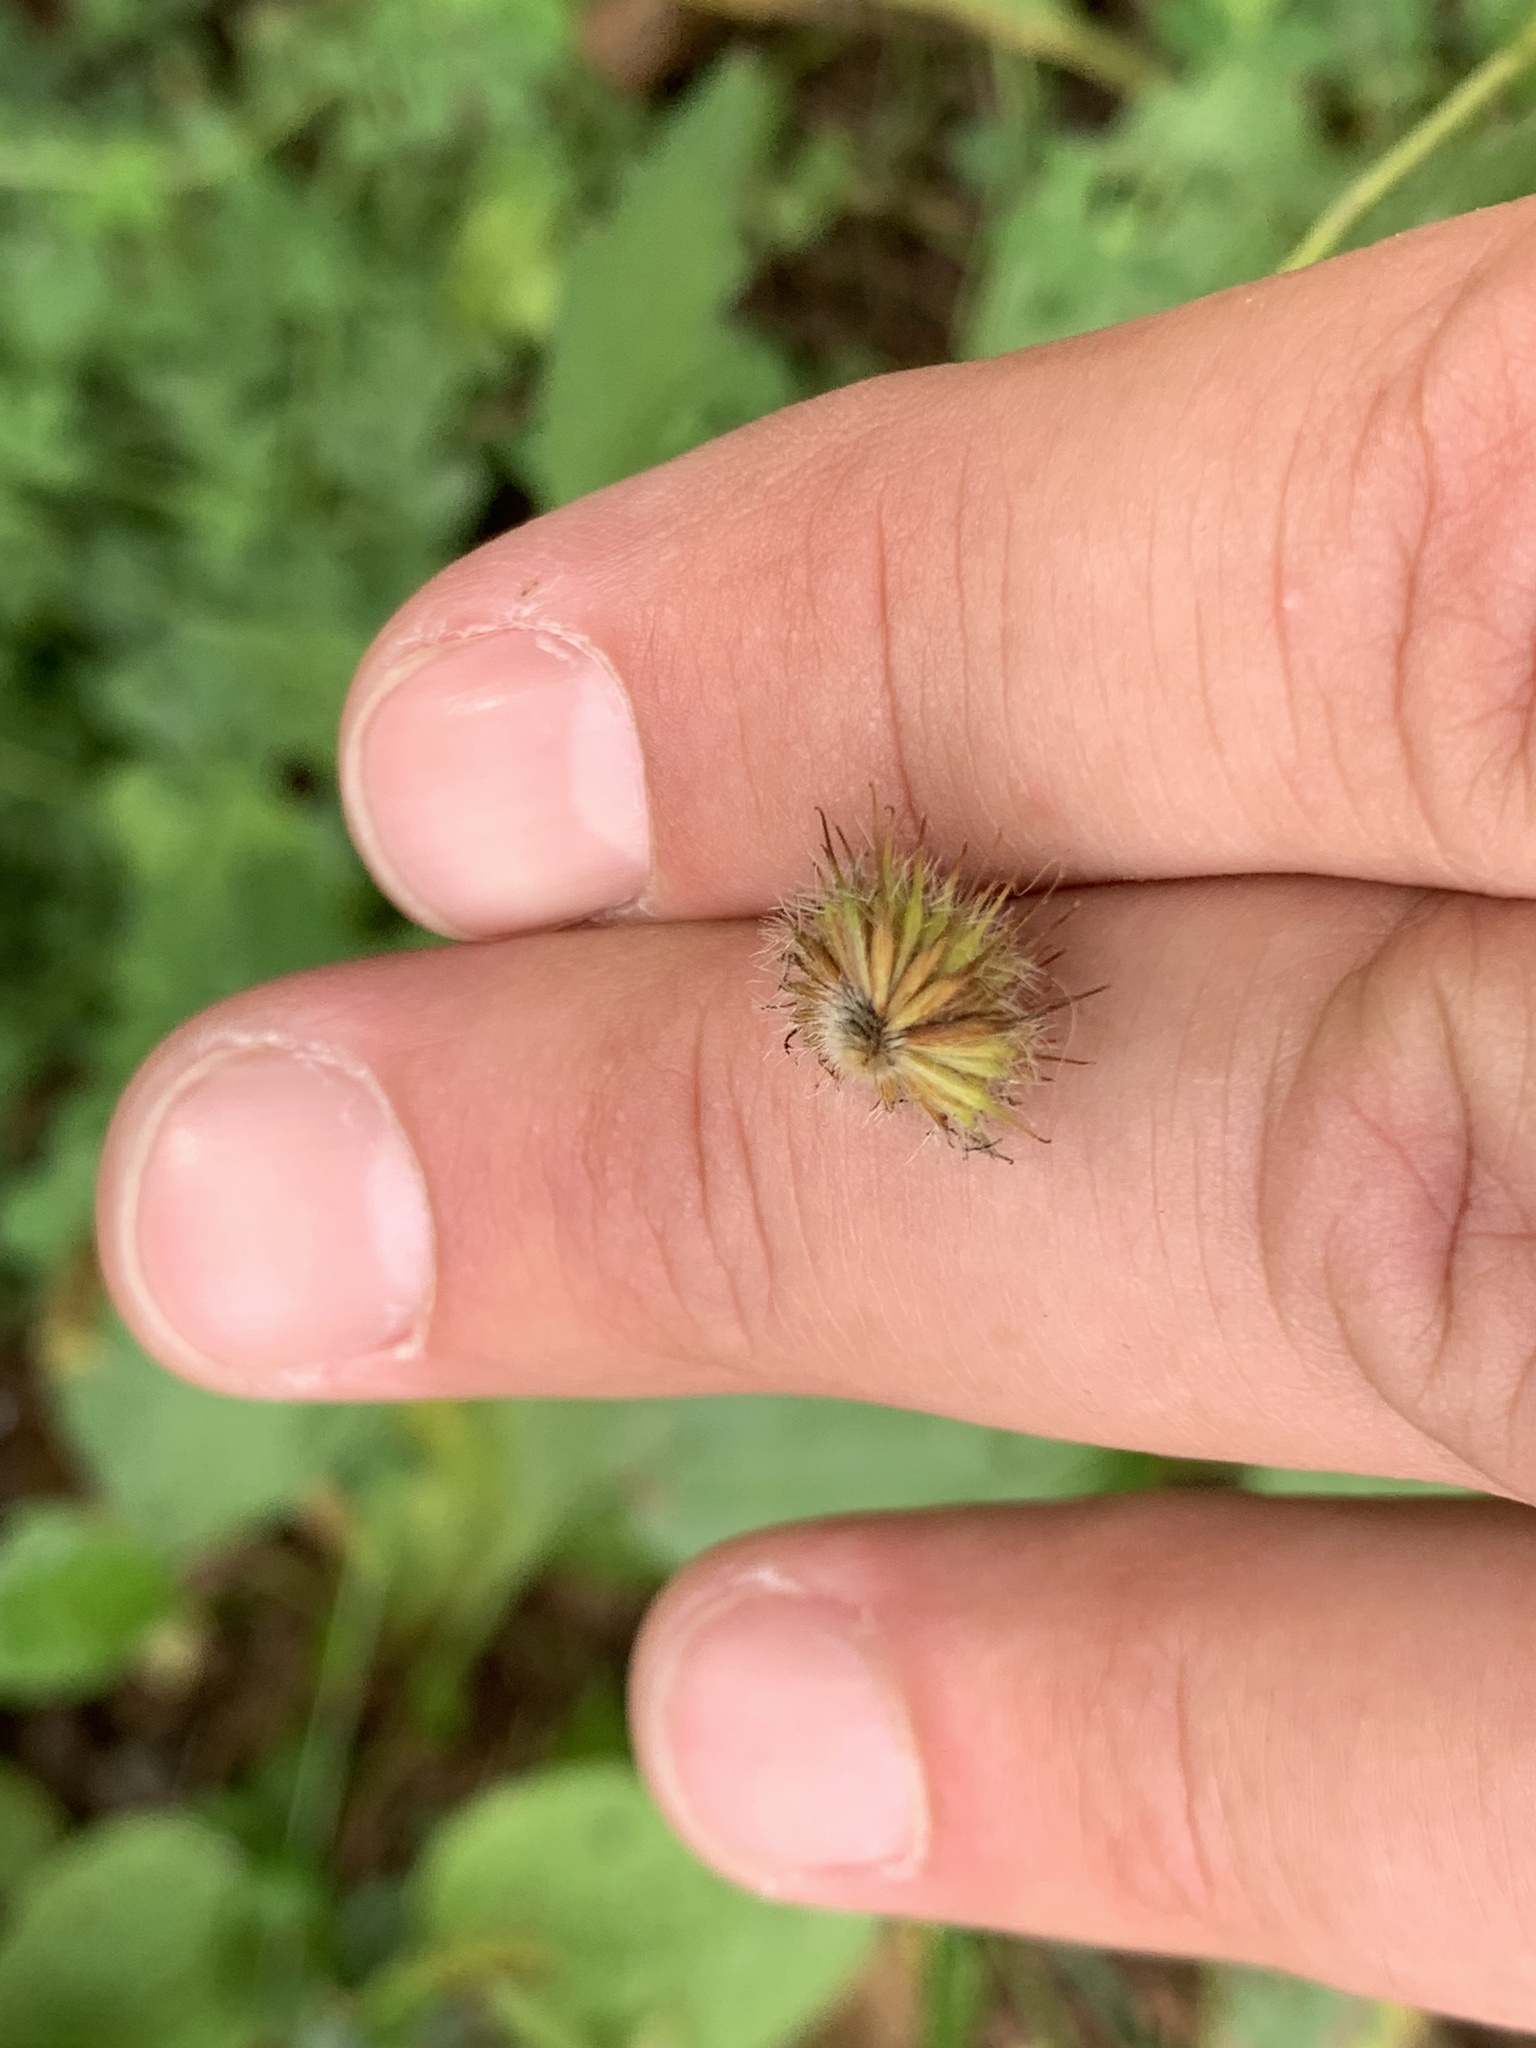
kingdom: Plantae
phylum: Tracheophyta
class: Magnoliopsida
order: Ranunculales
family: Ranunculaceae
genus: Ranunculus
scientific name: Ranunculus acris
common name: Meadow buttercup
